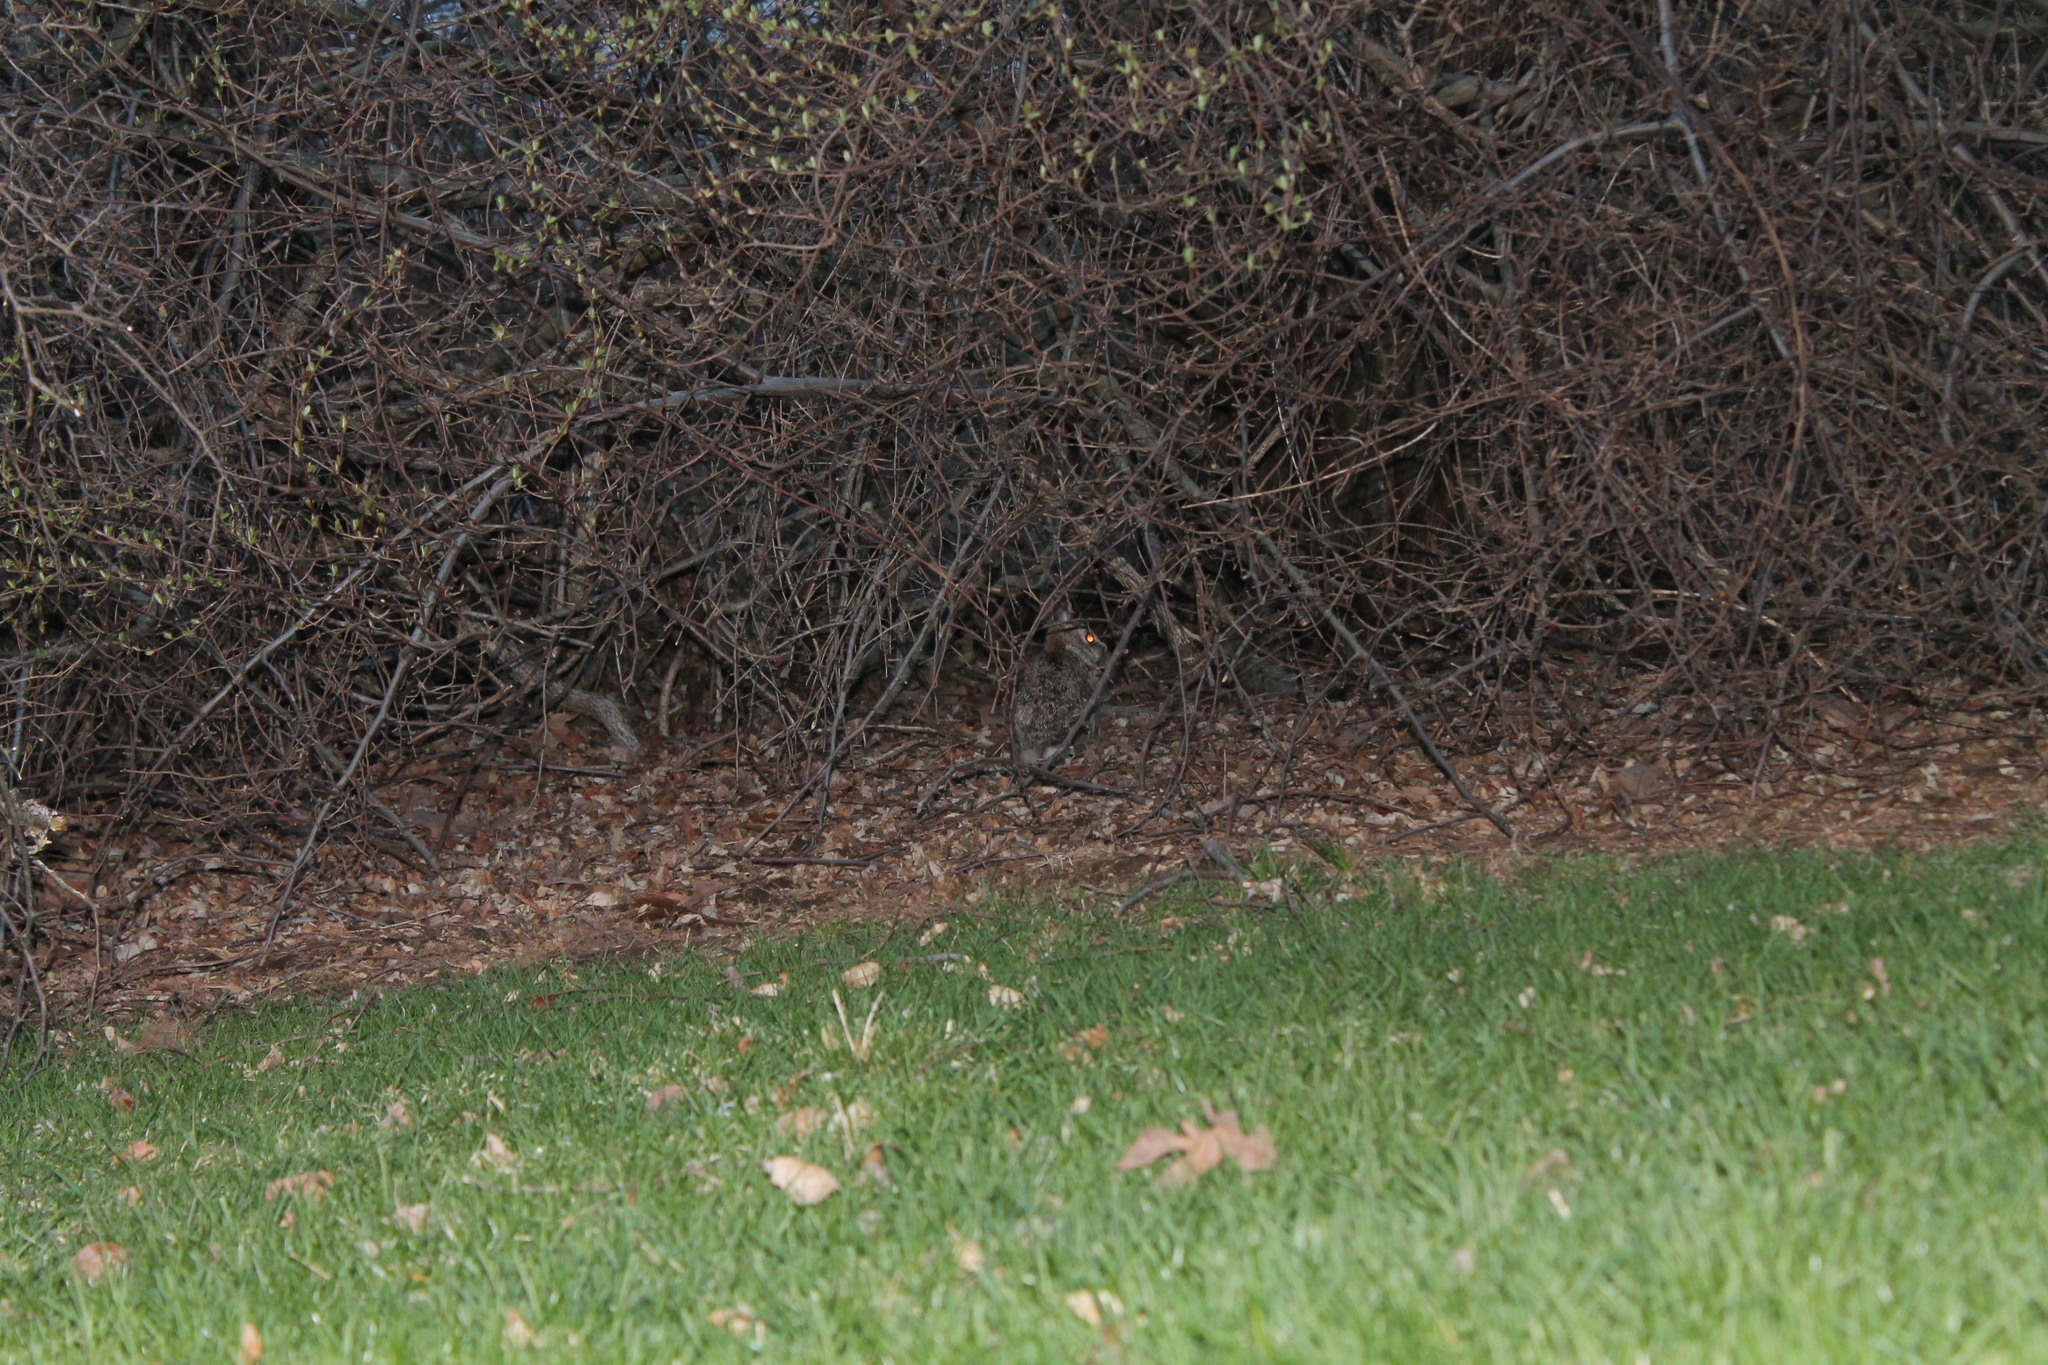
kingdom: Animalia
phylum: Chordata
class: Mammalia
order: Lagomorpha
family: Leporidae
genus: Sylvilagus
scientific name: Sylvilagus floridanus
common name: Eastern cottontail
